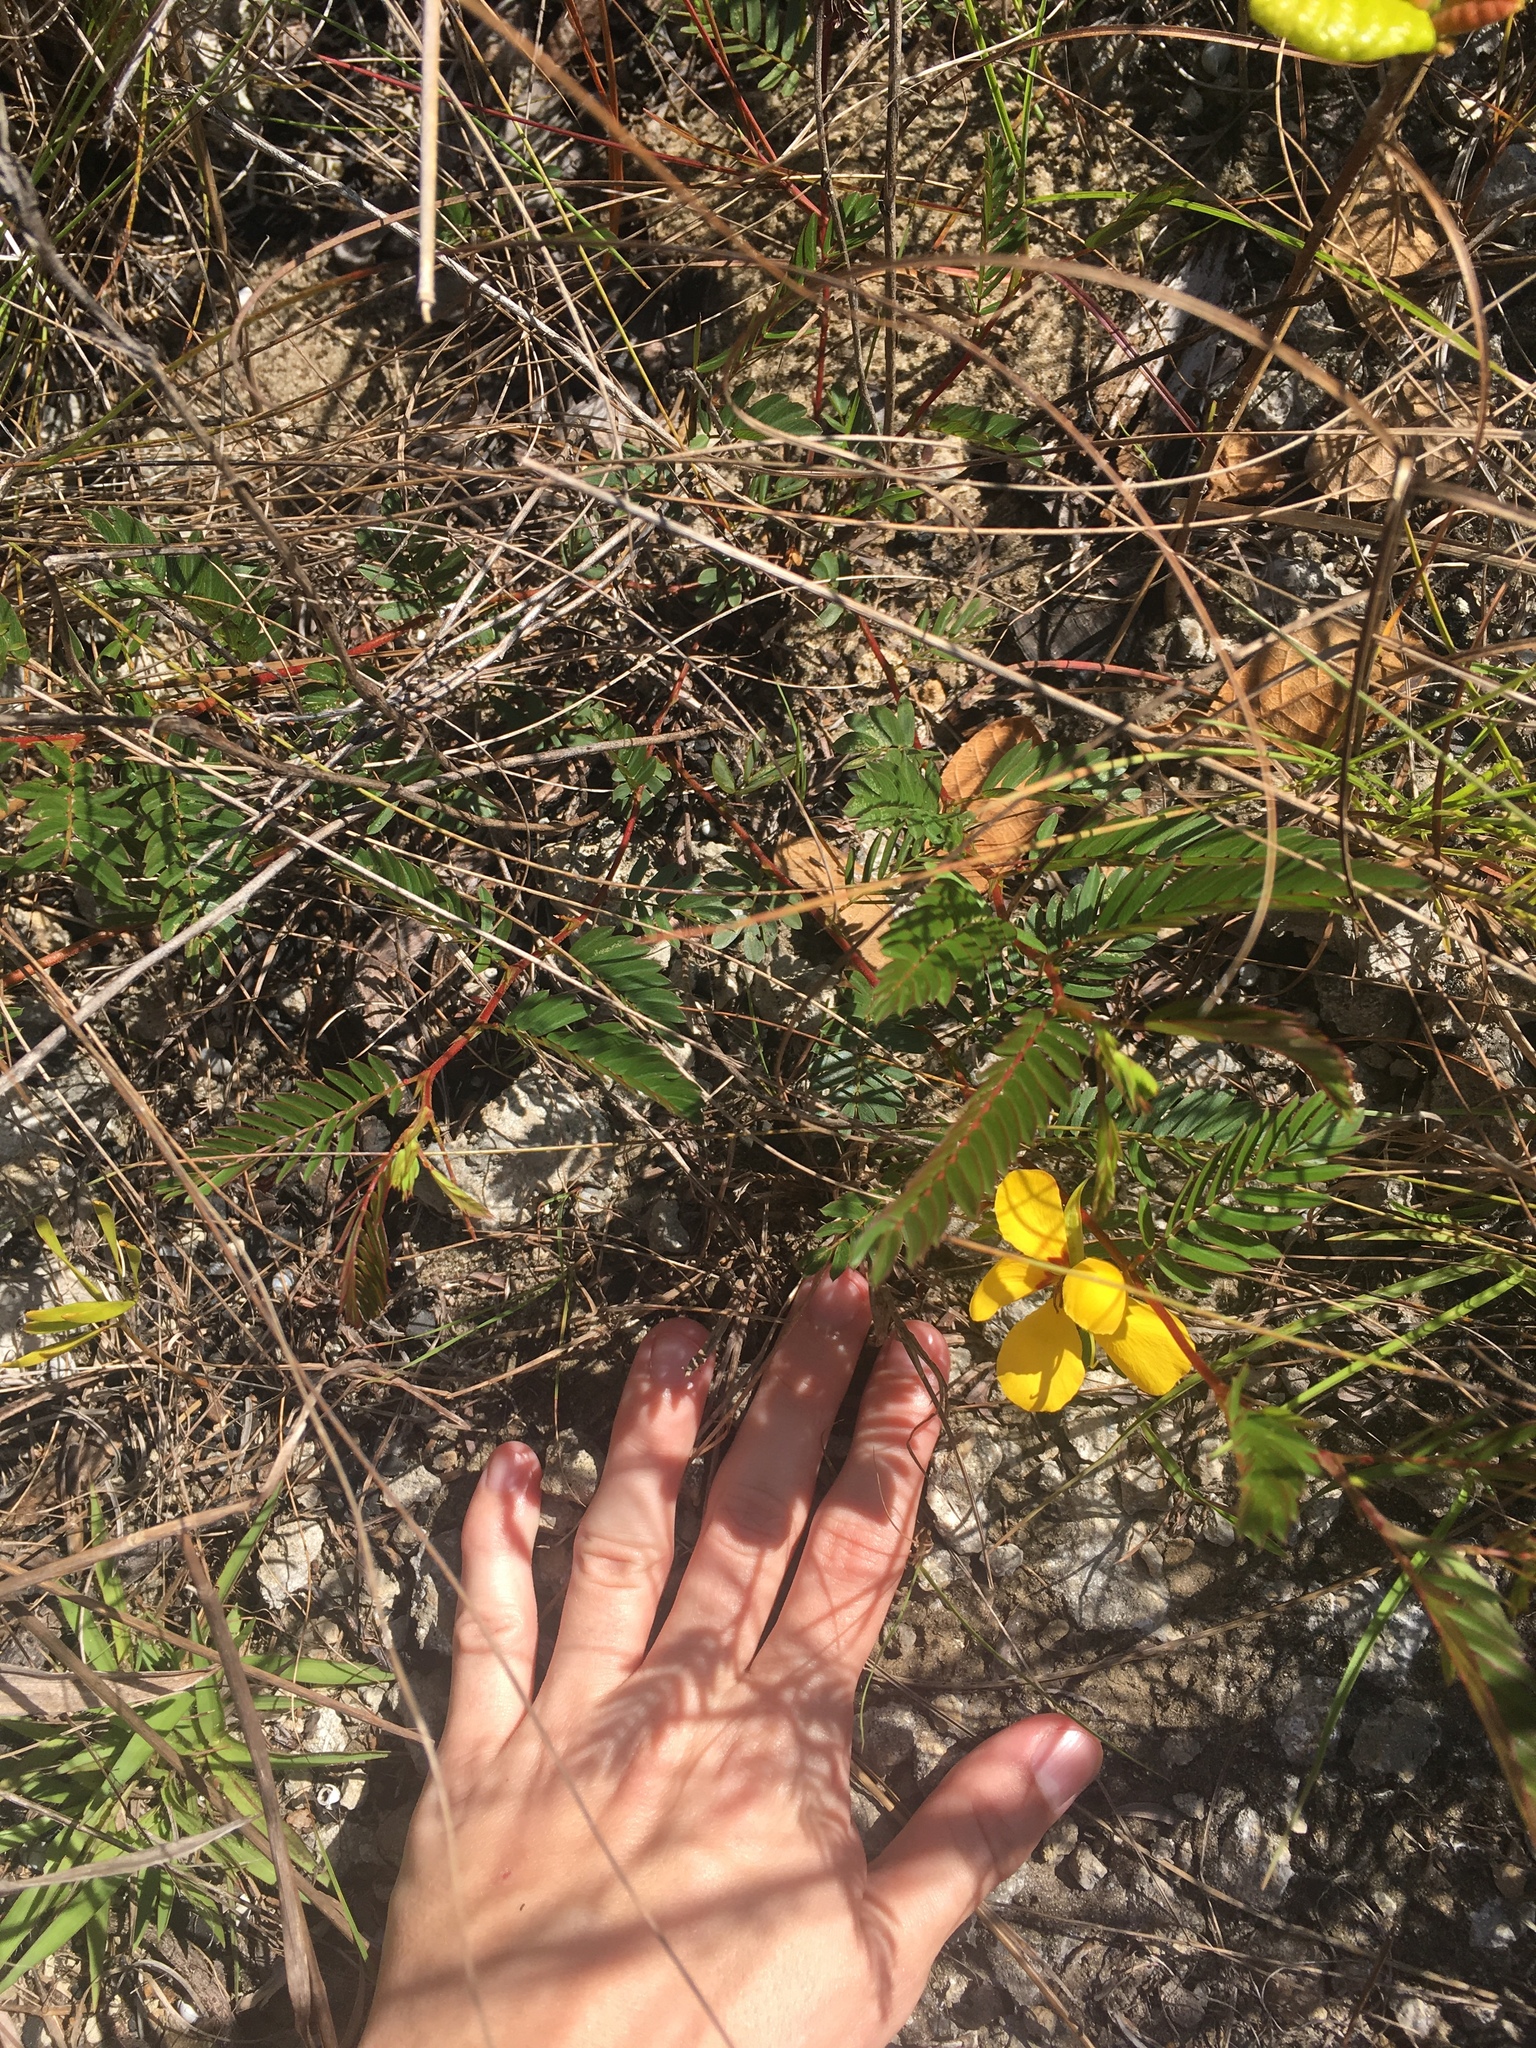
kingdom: Plantae
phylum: Tracheophyta
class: Magnoliopsida
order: Fabales
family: Fabaceae
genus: Chamaecrista
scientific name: Chamaecrista deeringiana
